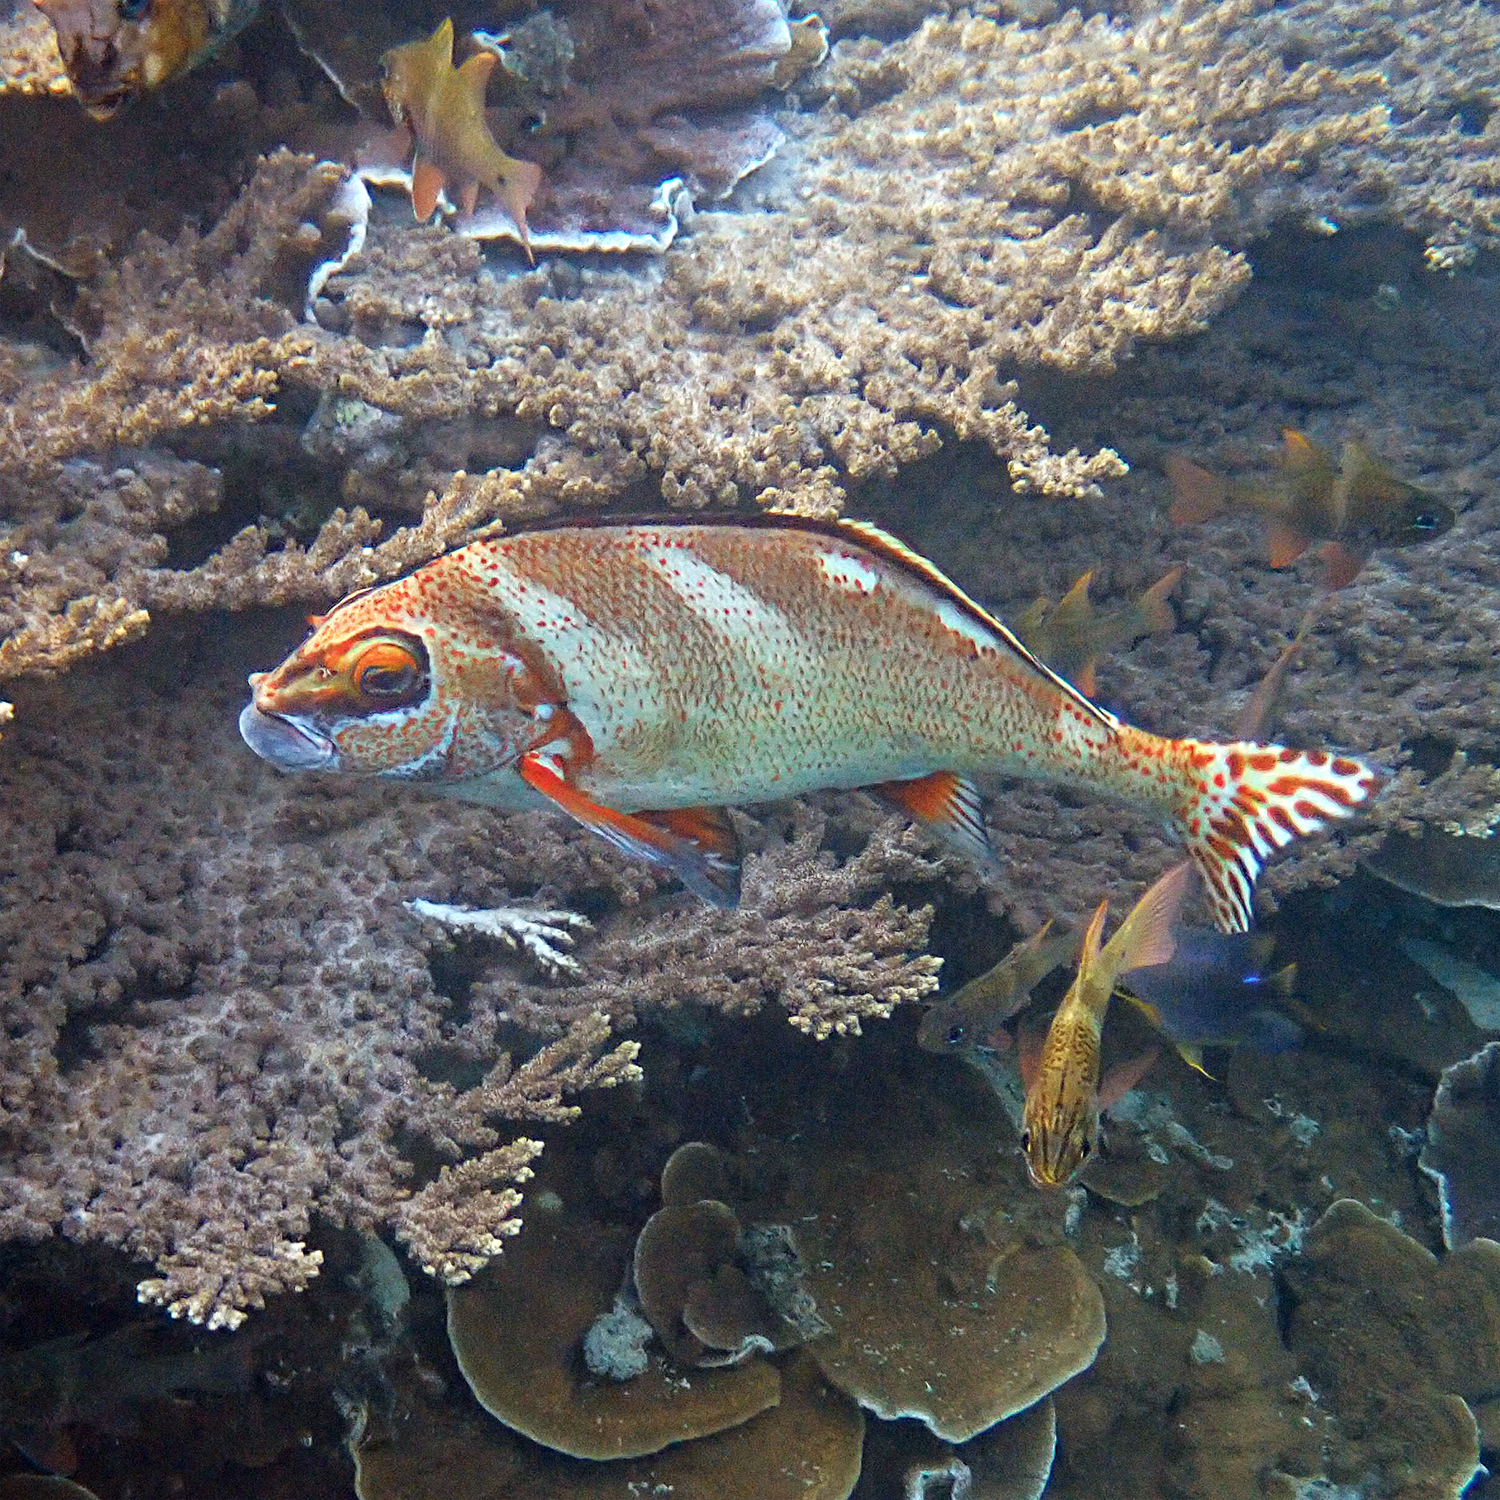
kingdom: Animalia
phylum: Chordata
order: Perciformes
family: Latridae
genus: Morwong
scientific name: Morwong ephippium
